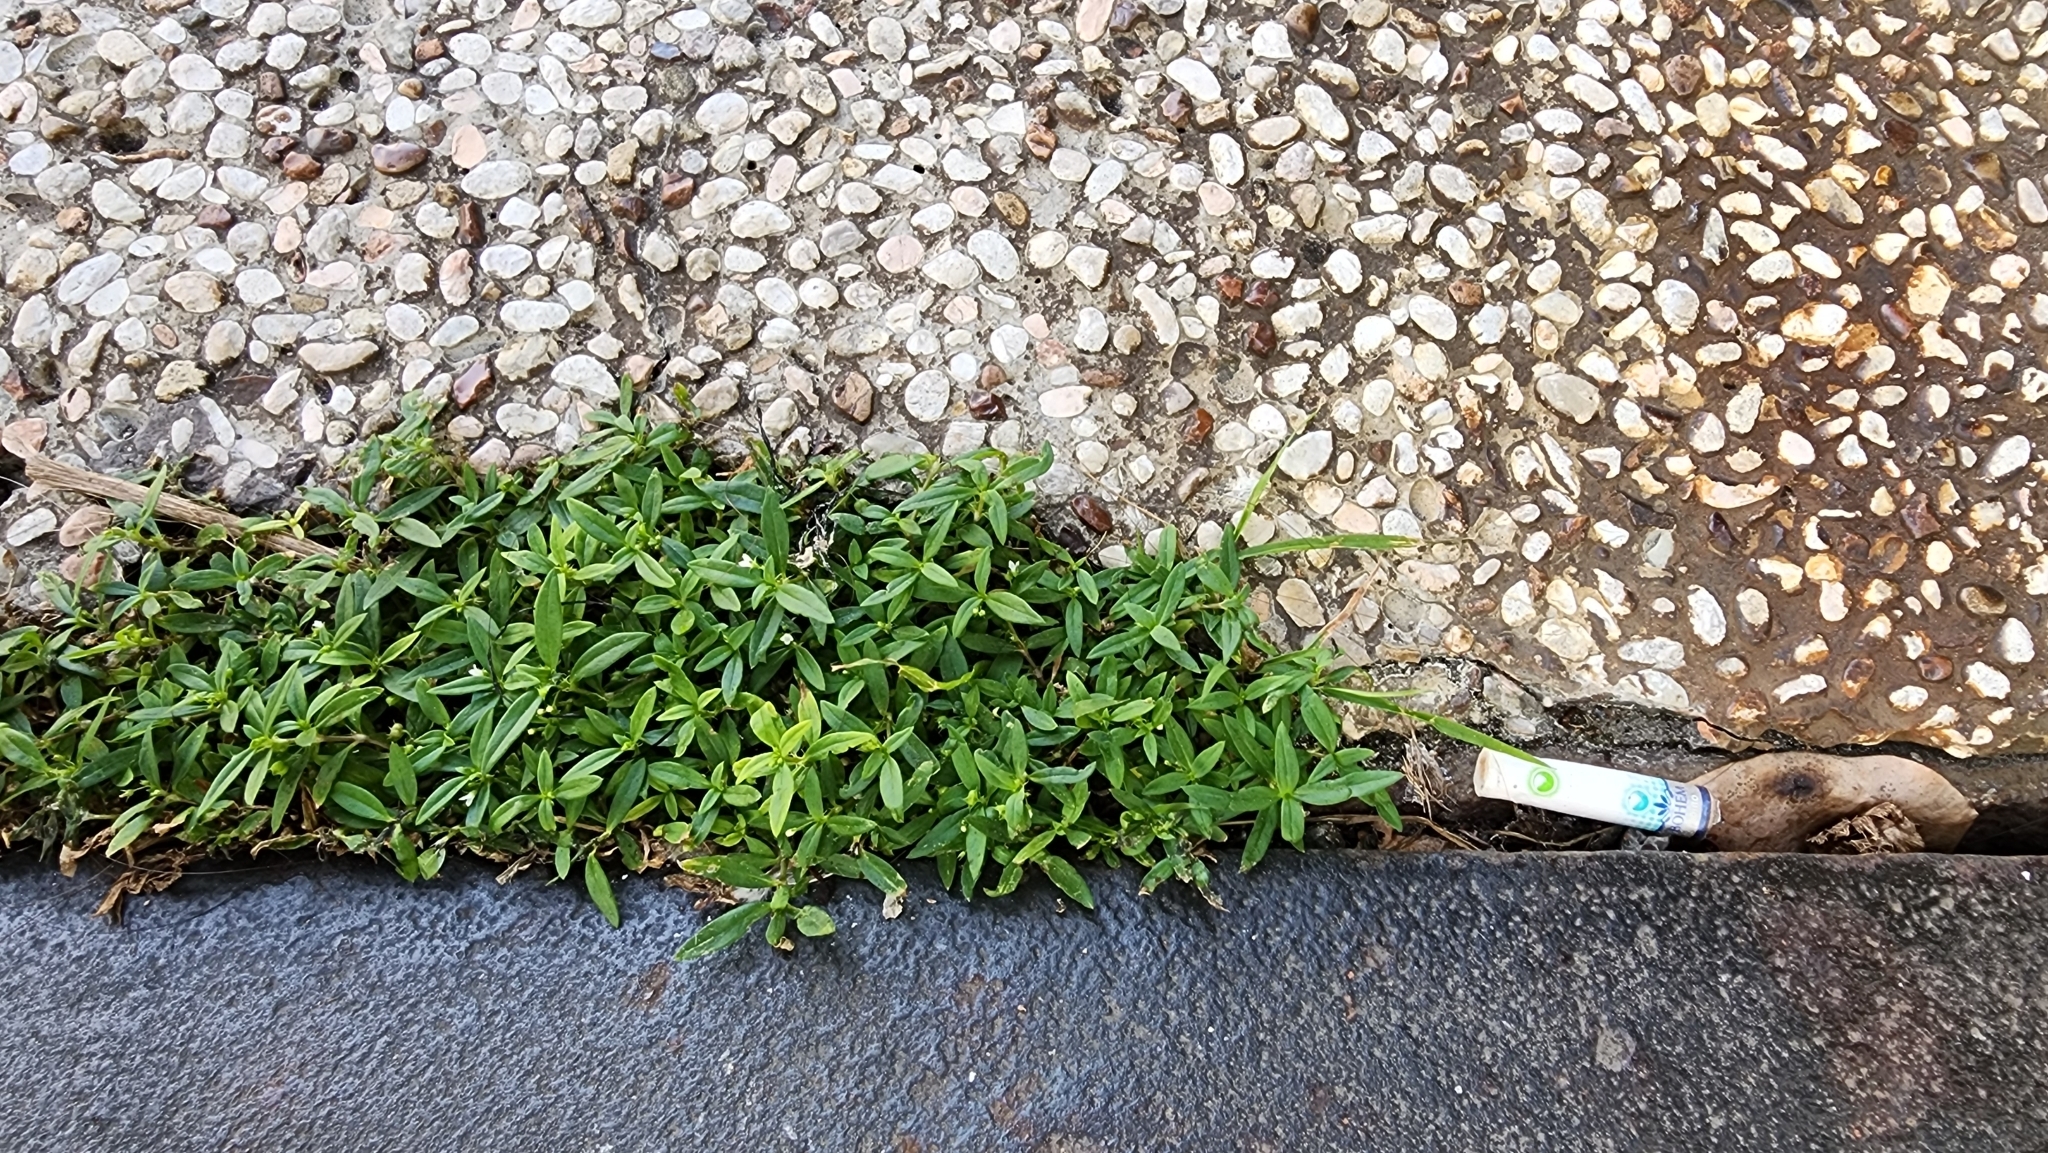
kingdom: Plantae
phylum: Tracheophyta
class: Magnoliopsida
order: Gentianales
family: Rubiaceae
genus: Oldenlandia
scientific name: Oldenlandia corymbosa
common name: Flat-top mille graines
